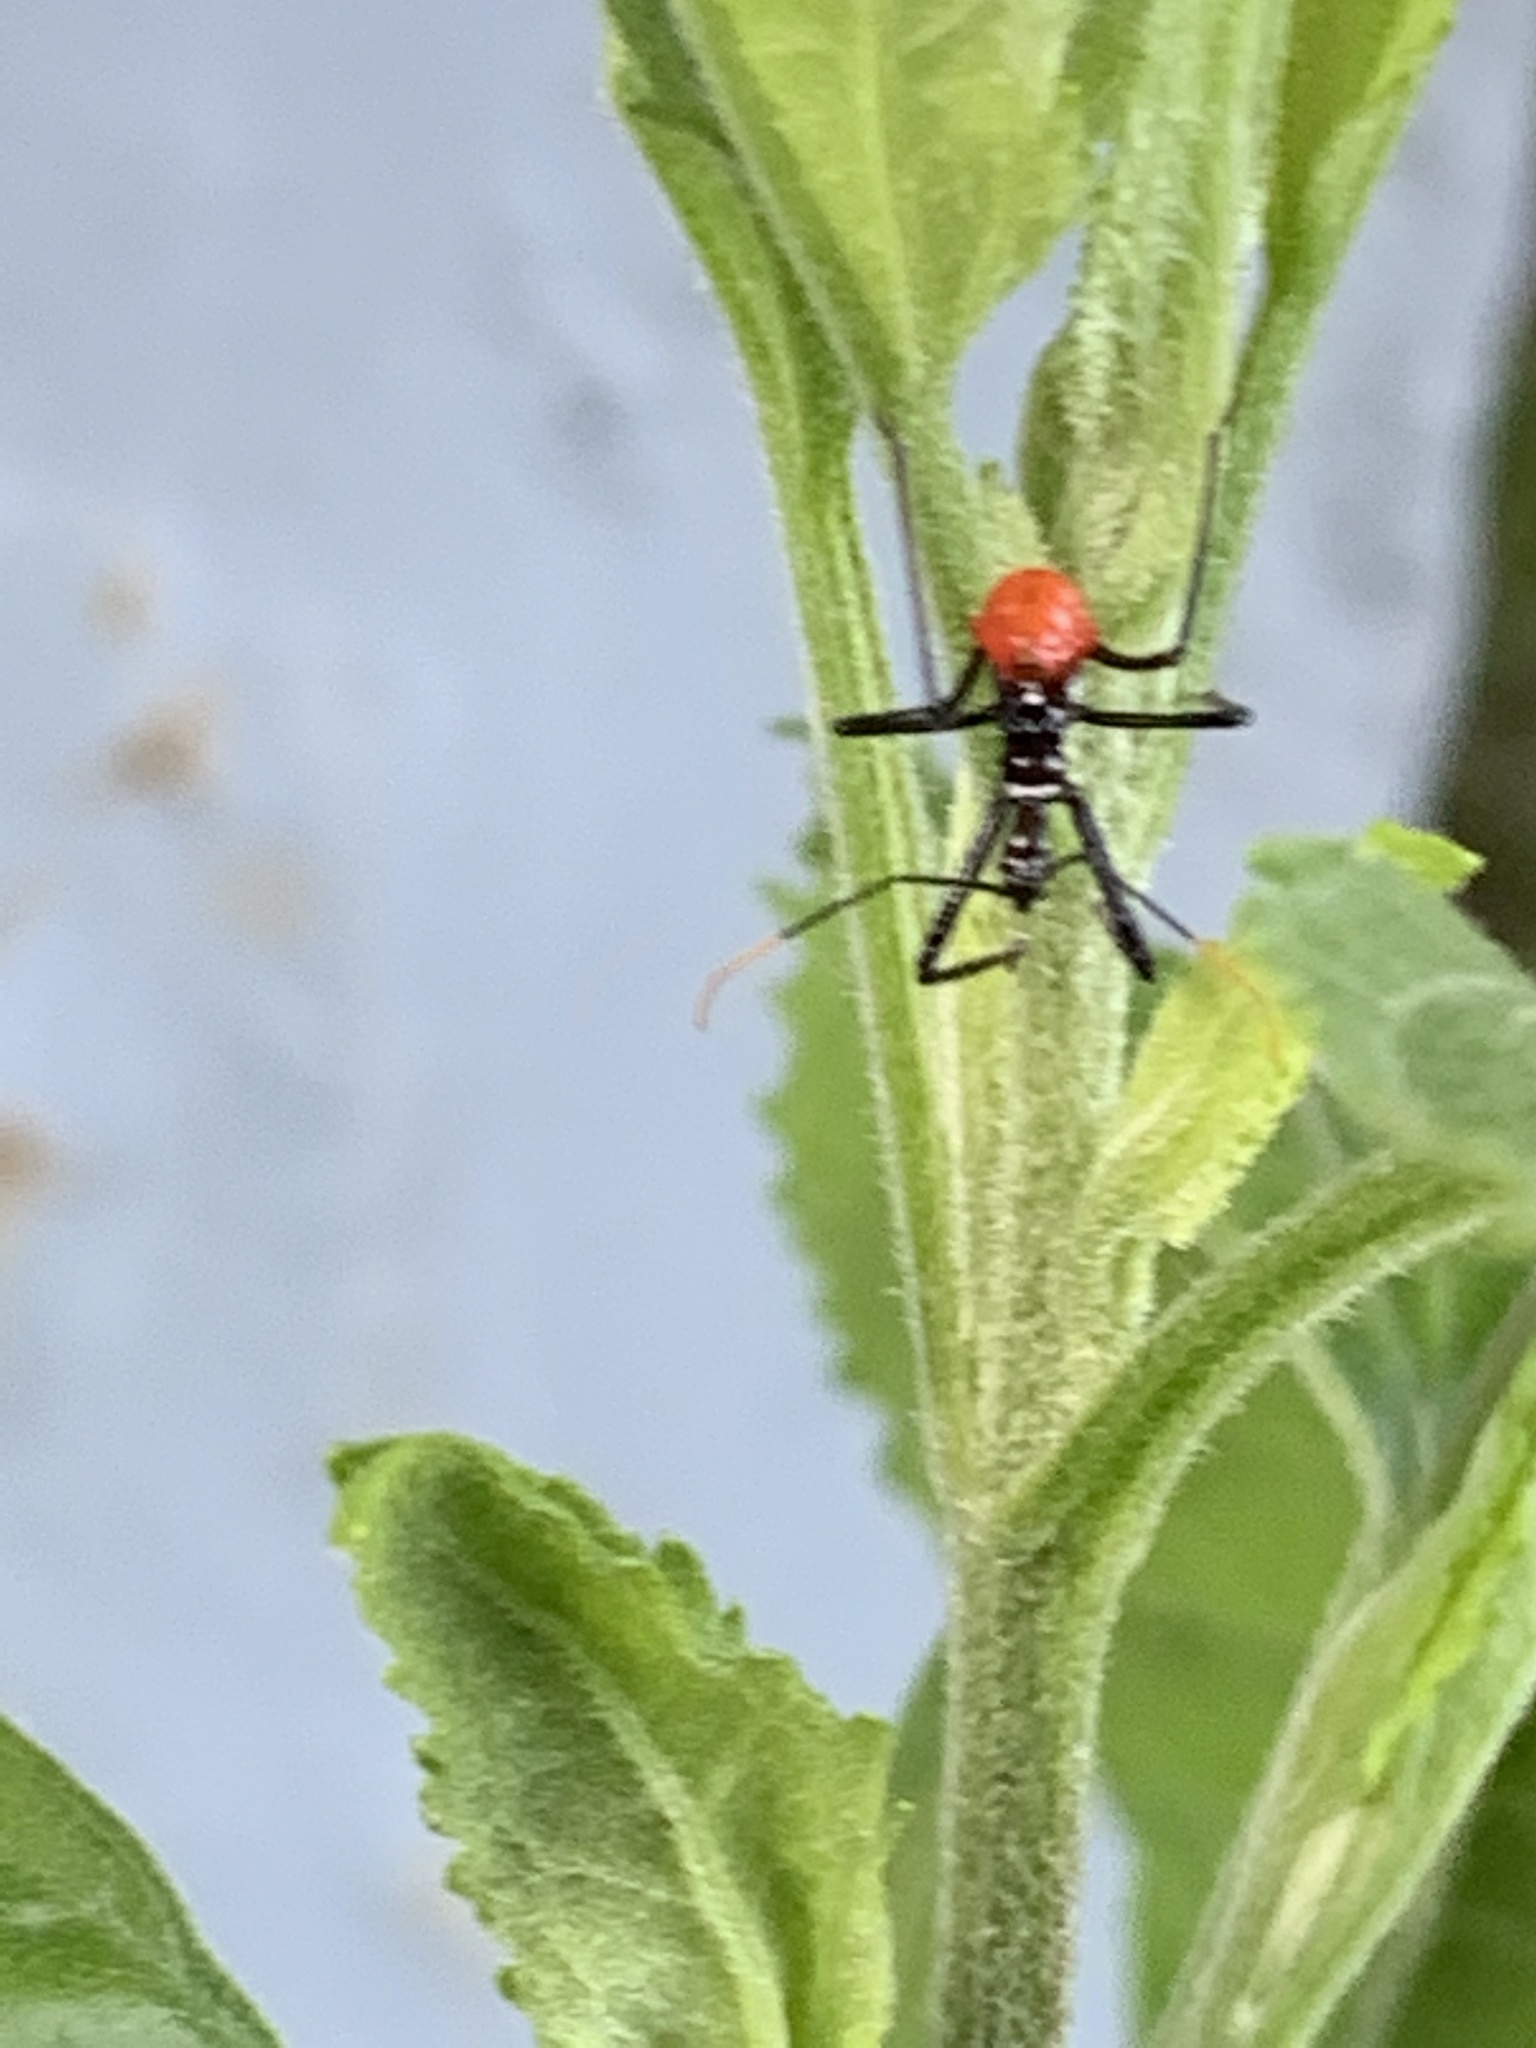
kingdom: Animalia
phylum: Arthropoda
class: Insecta
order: Hemiptera
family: Reduviidae
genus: Arilus
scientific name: Arilus cristatus
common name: North american wheel bug
